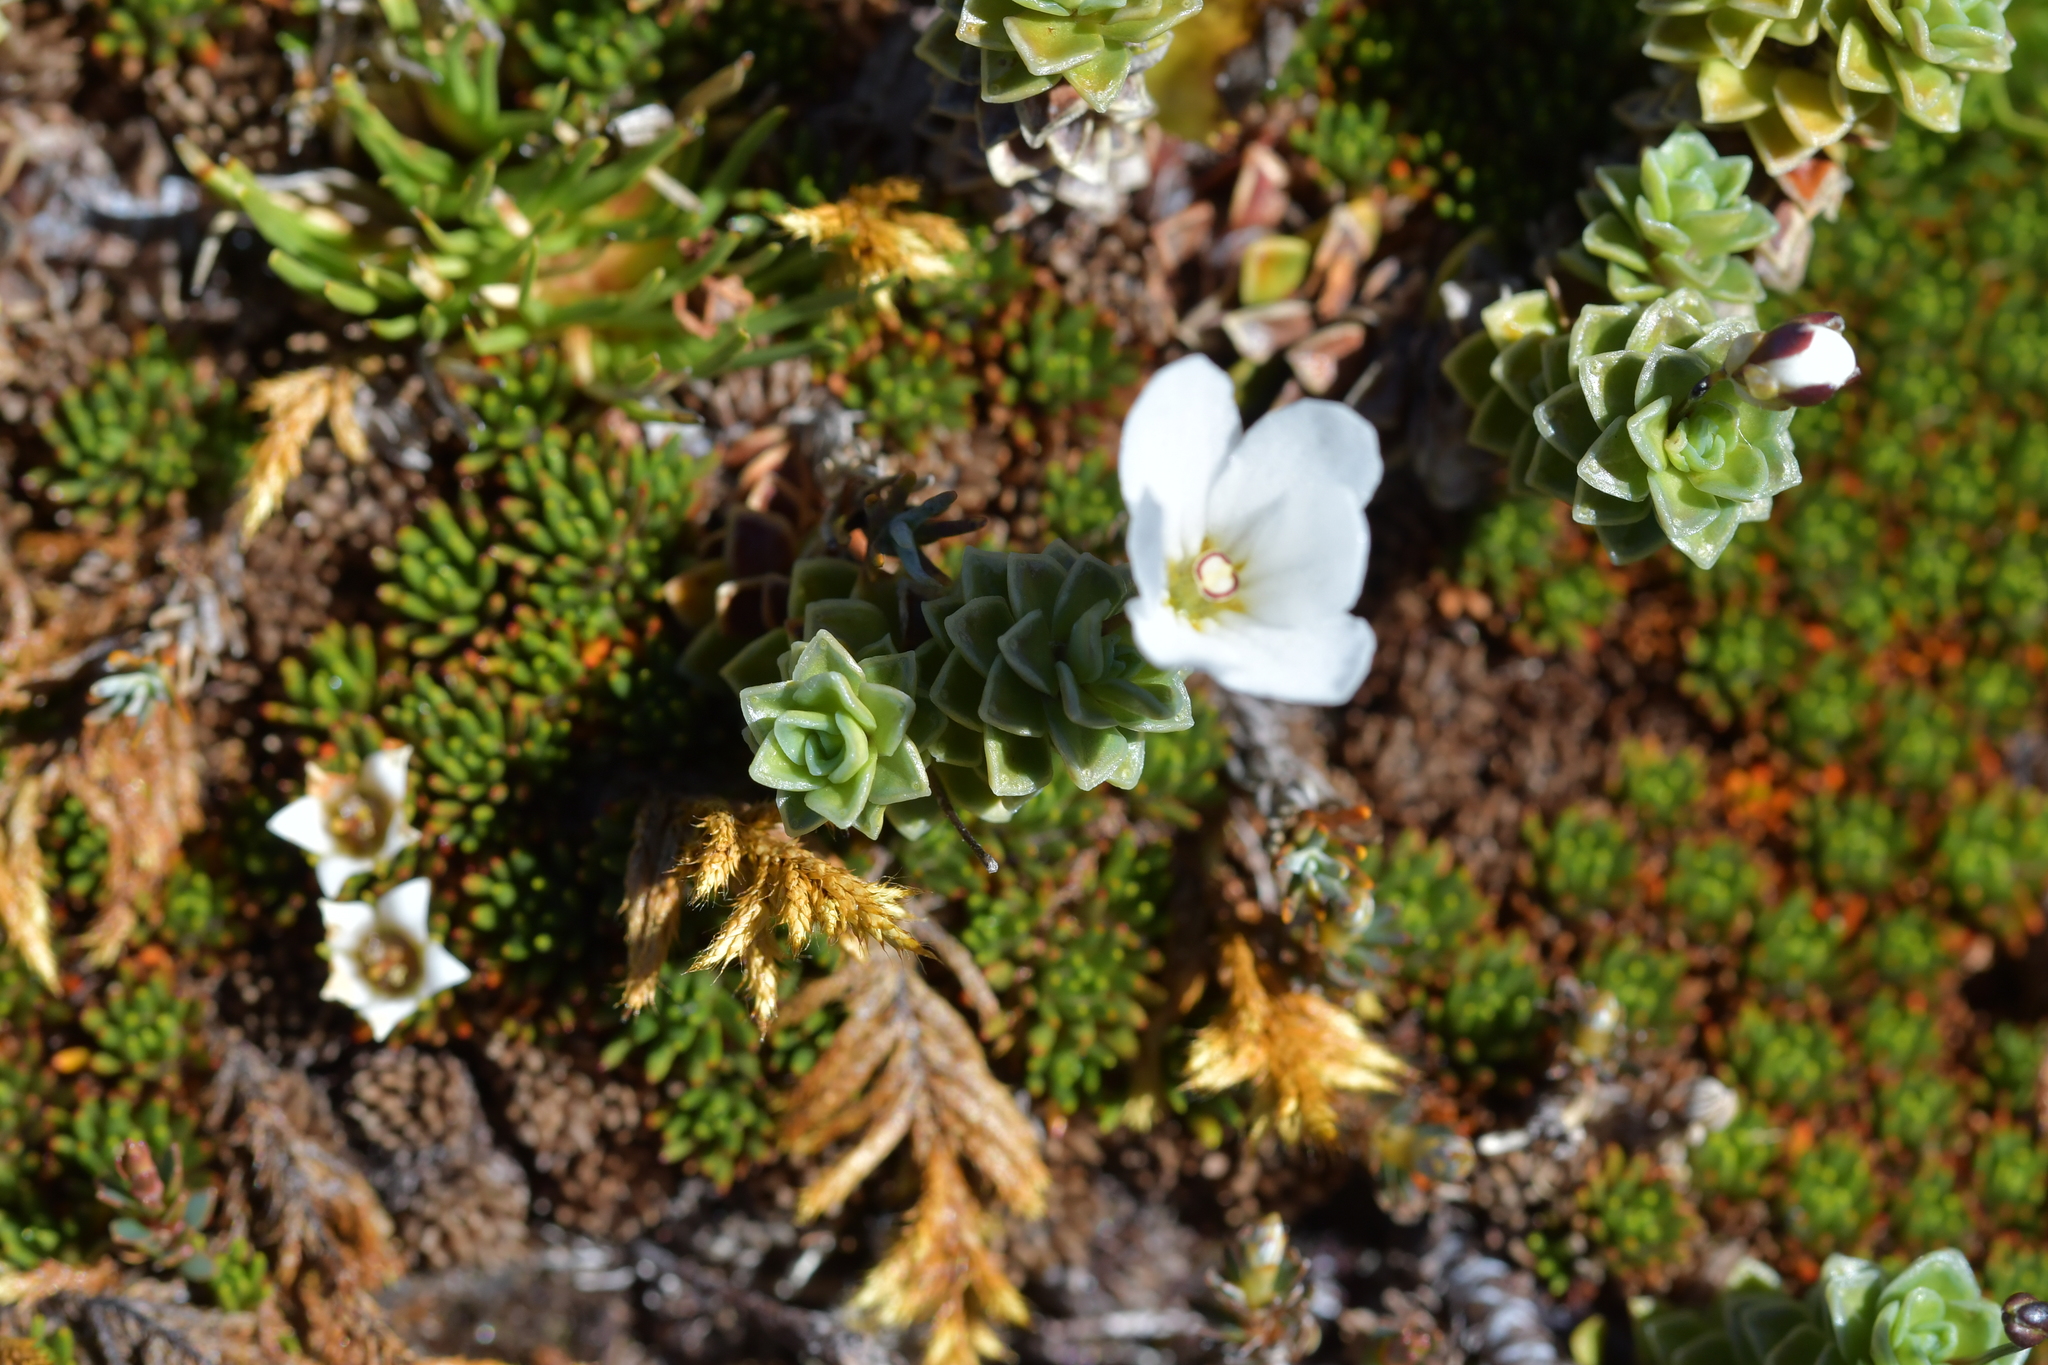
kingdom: Plantae
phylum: Tracheophyta
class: Magnoliopsida
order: Asterales
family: Stylidiaceae
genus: Forstera
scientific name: Forstera sedifolia
